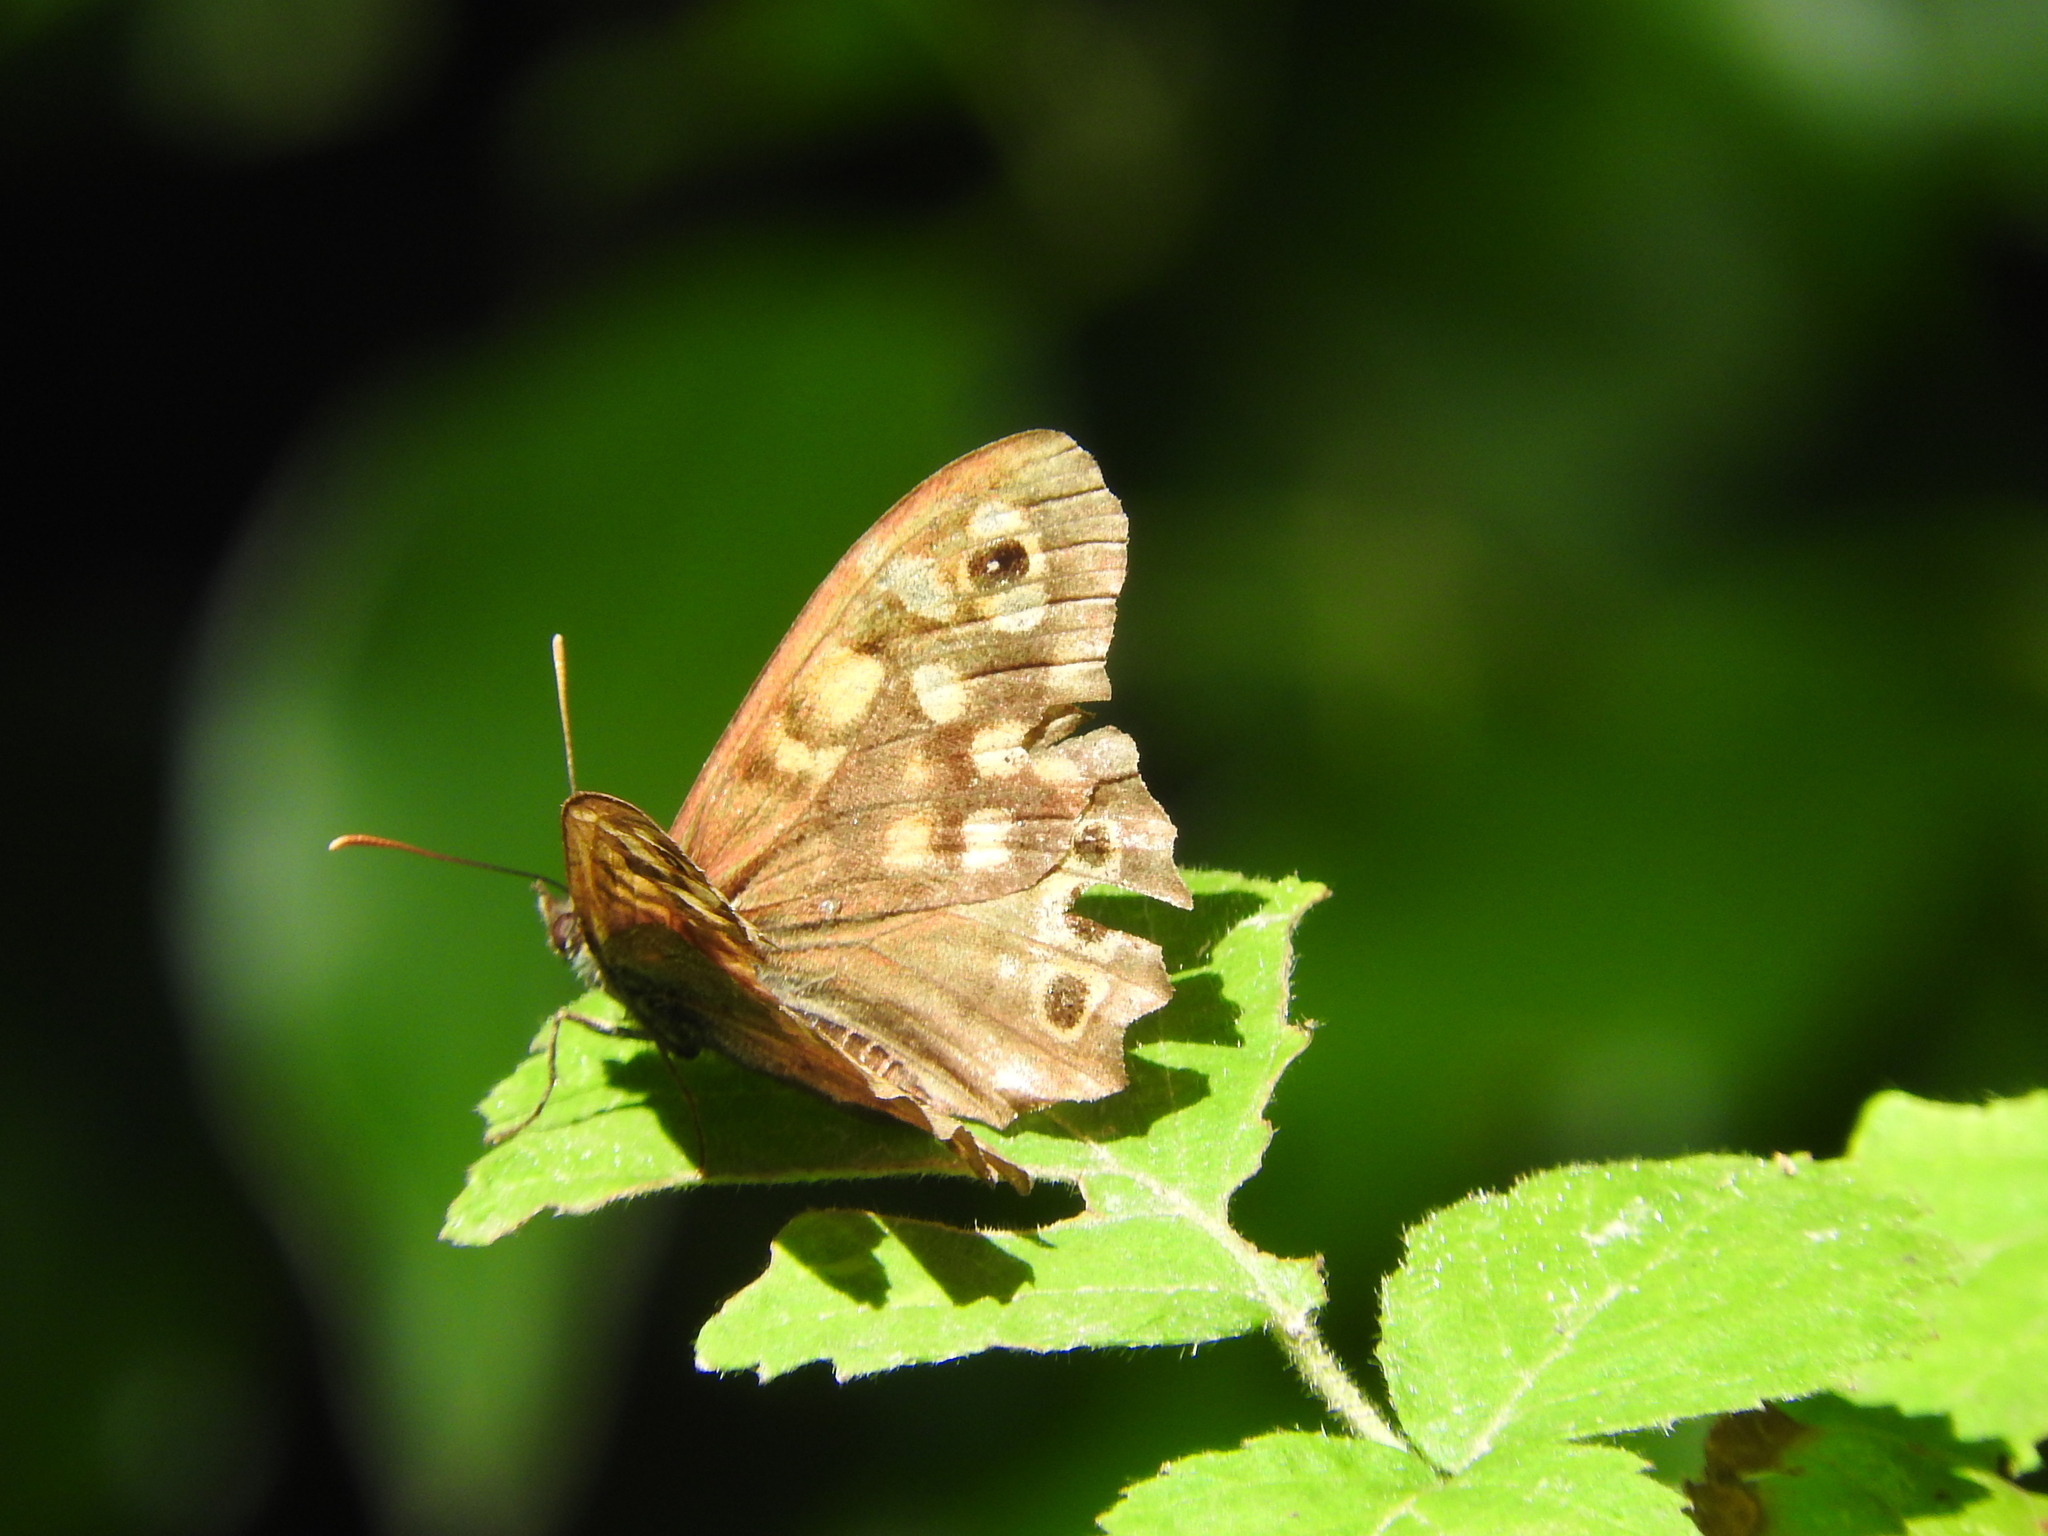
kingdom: Animalia
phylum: Arthropoda
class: Insecta
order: Lepidoptera
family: Nymphalidae
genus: Pararge
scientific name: Pararge aegeria
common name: Speckled wood
